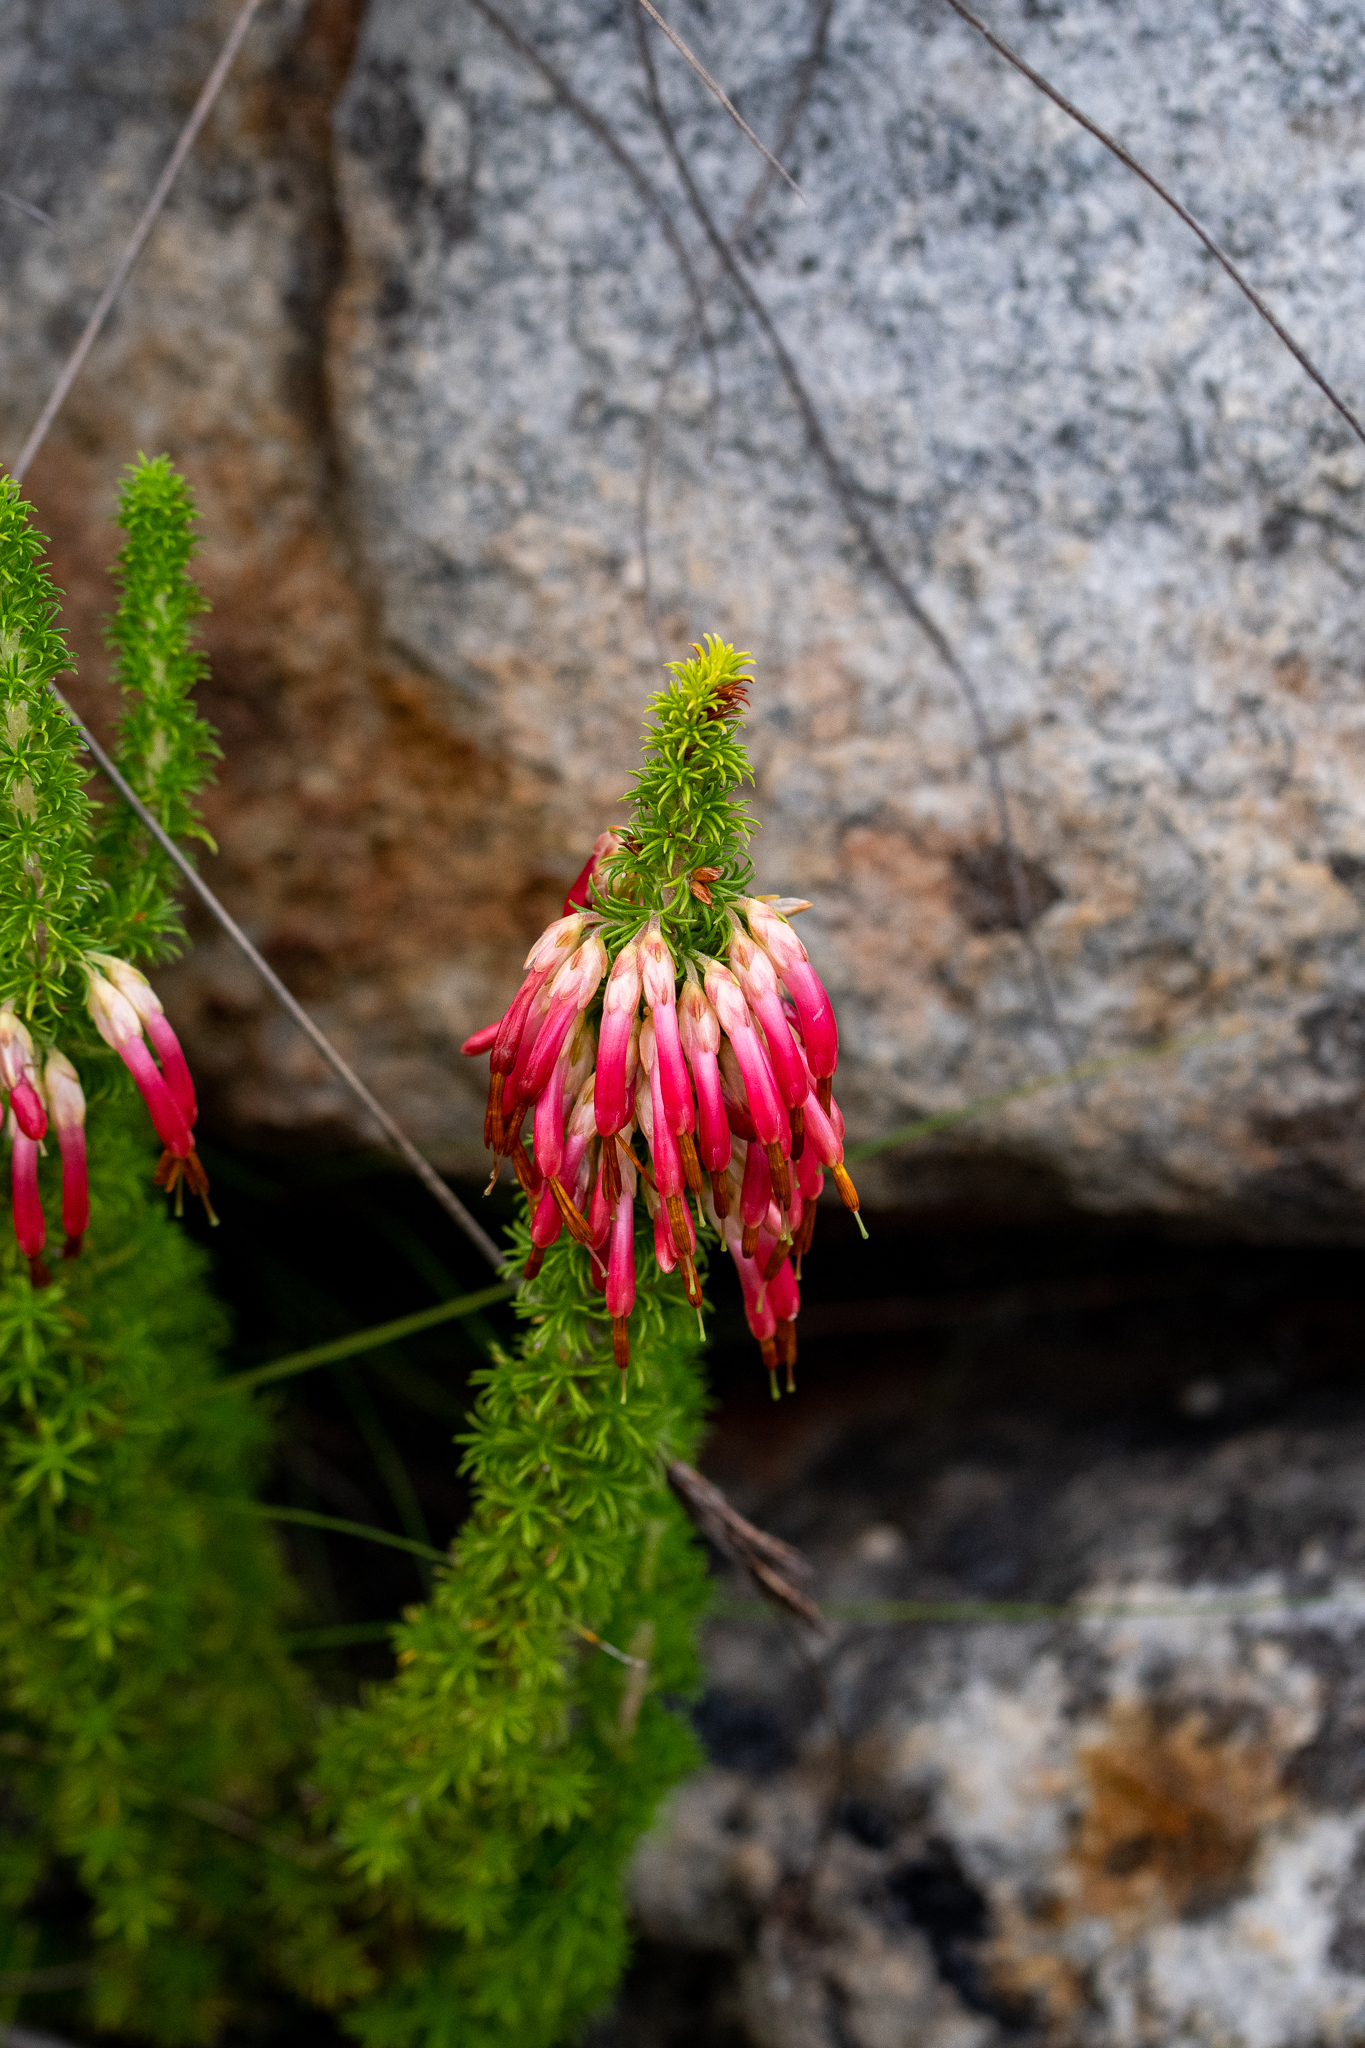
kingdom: Plantae
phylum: Tracheophyta
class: Magnoliopsida
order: Ericales
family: Ericaceae
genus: Erica
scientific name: Erica coccinea
